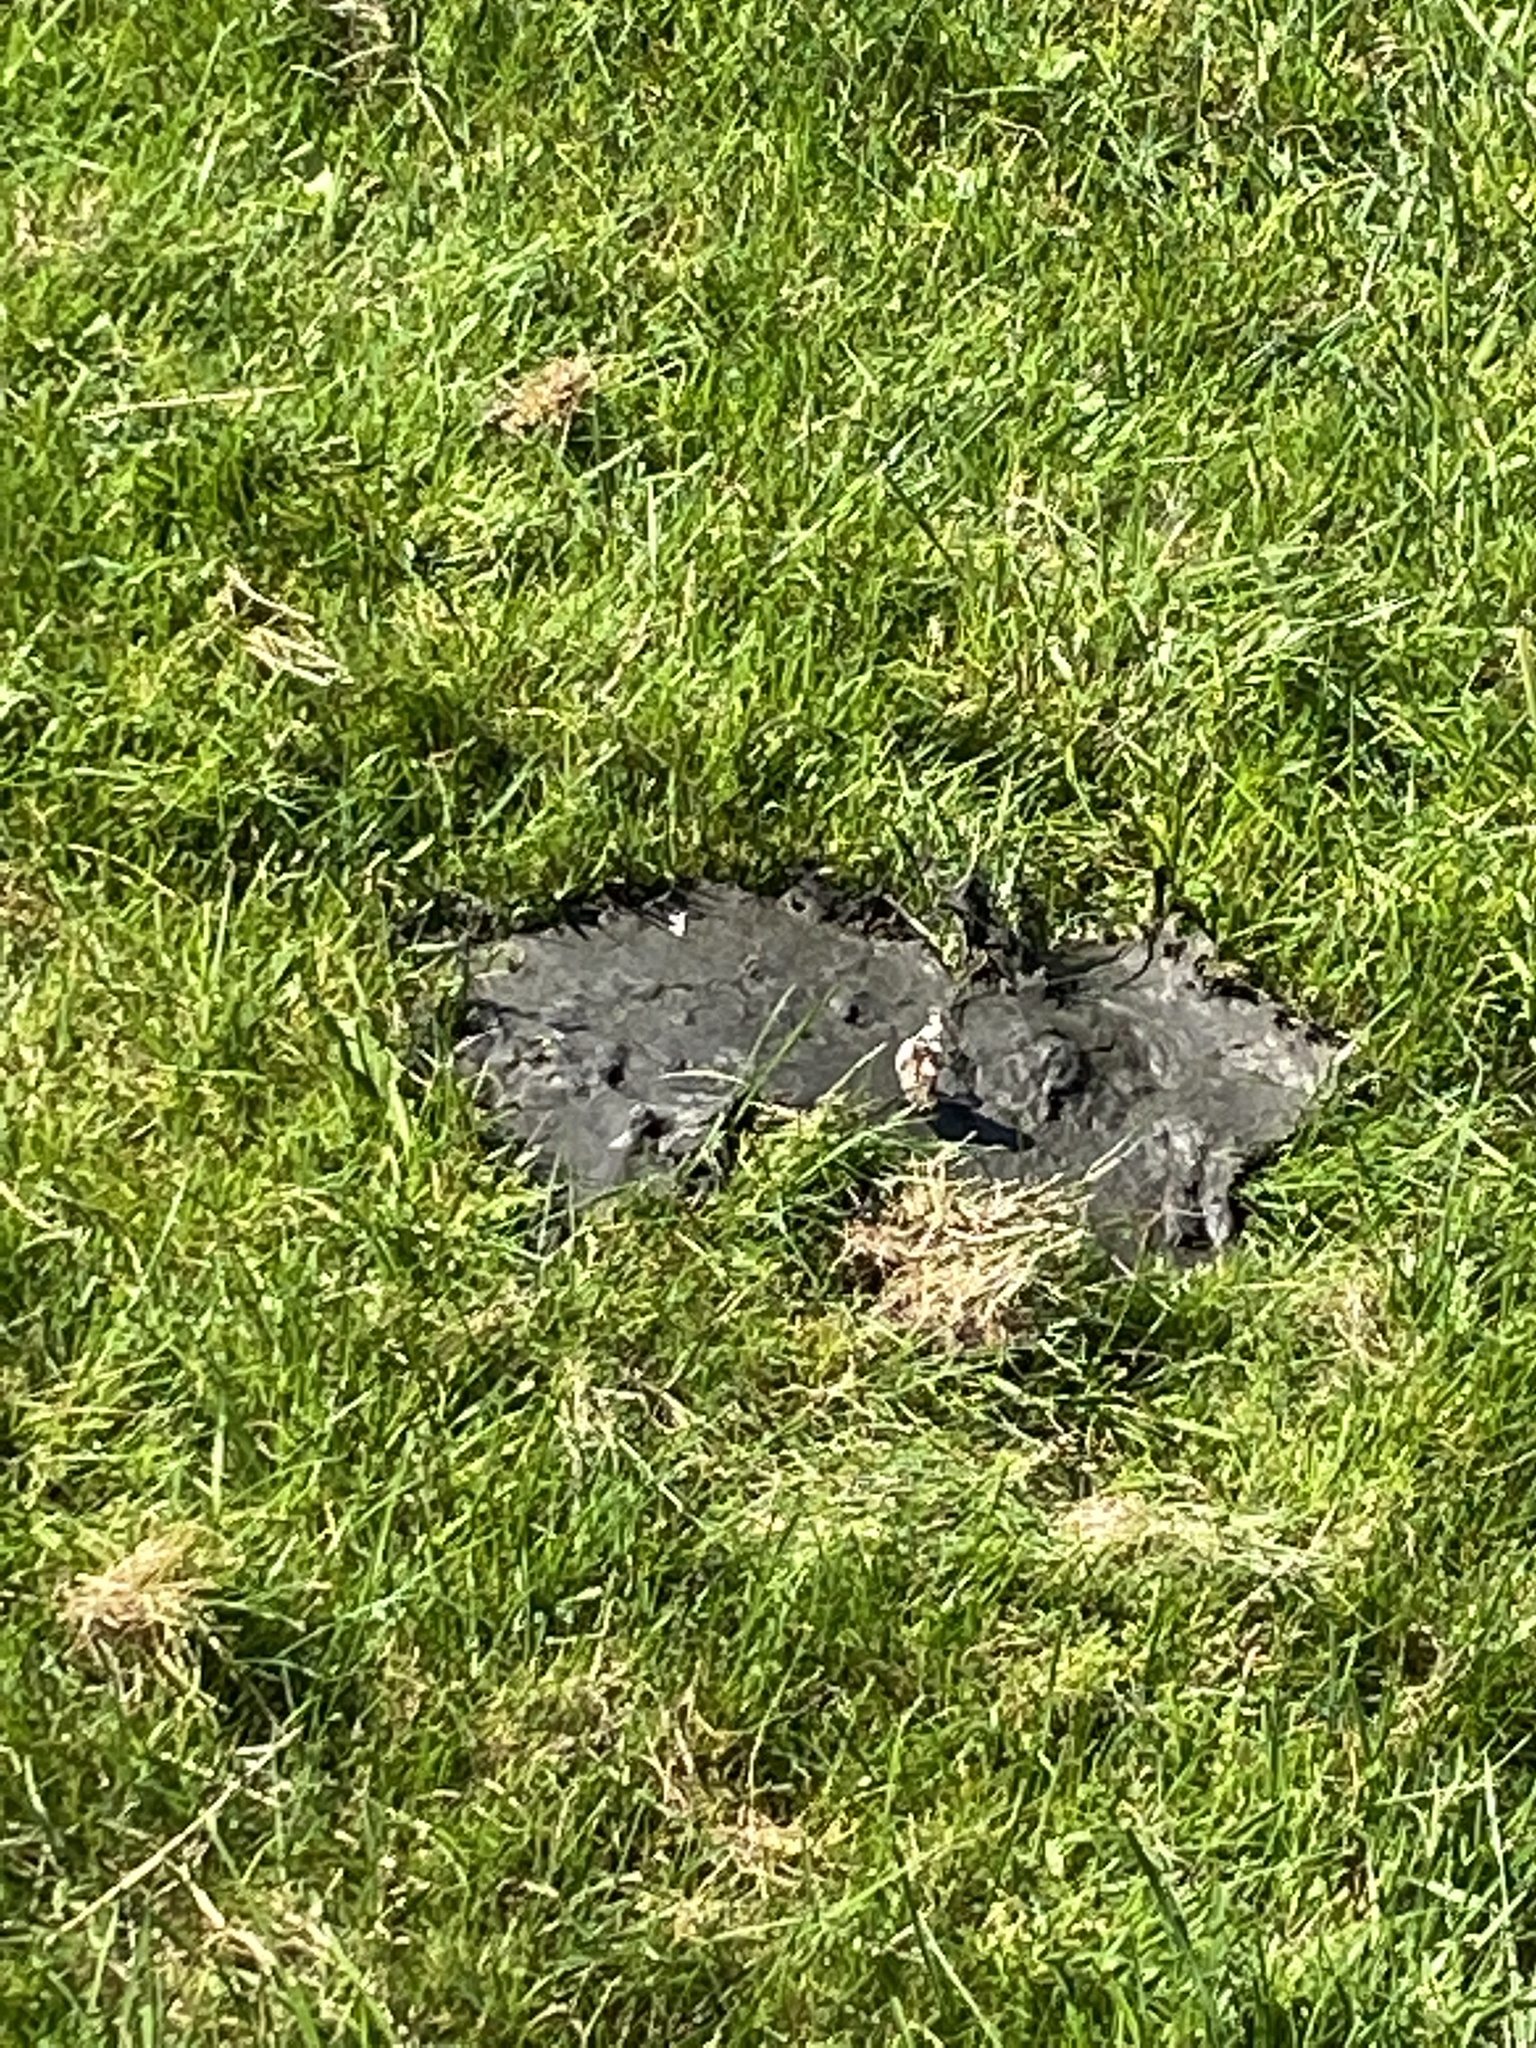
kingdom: Animalia
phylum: Arthropoda
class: Insecta
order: Lepidoptera
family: Nymphalidae
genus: Vanessa
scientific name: Vanessa atalanta
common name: Red admiral
